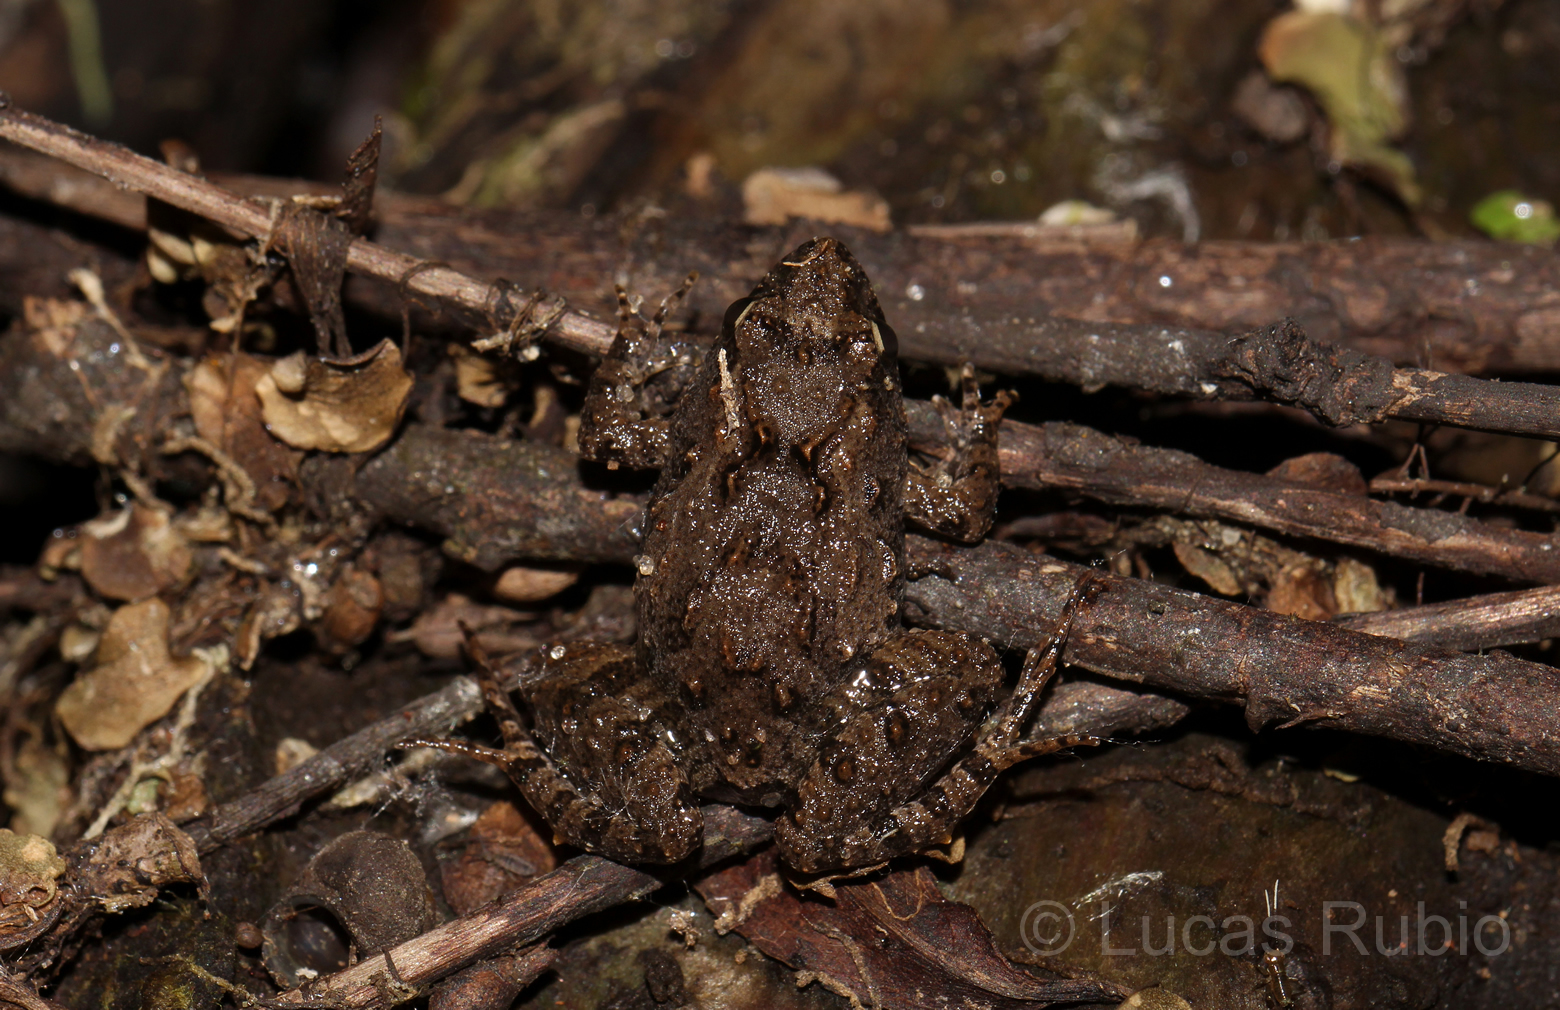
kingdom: Animalia
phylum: Chordata
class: Amphibia
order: Anura
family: Leptodactylidae
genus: Pseudopaludicola
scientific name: Pseudopaludicola falcipes
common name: Hensel’s swamp frog
